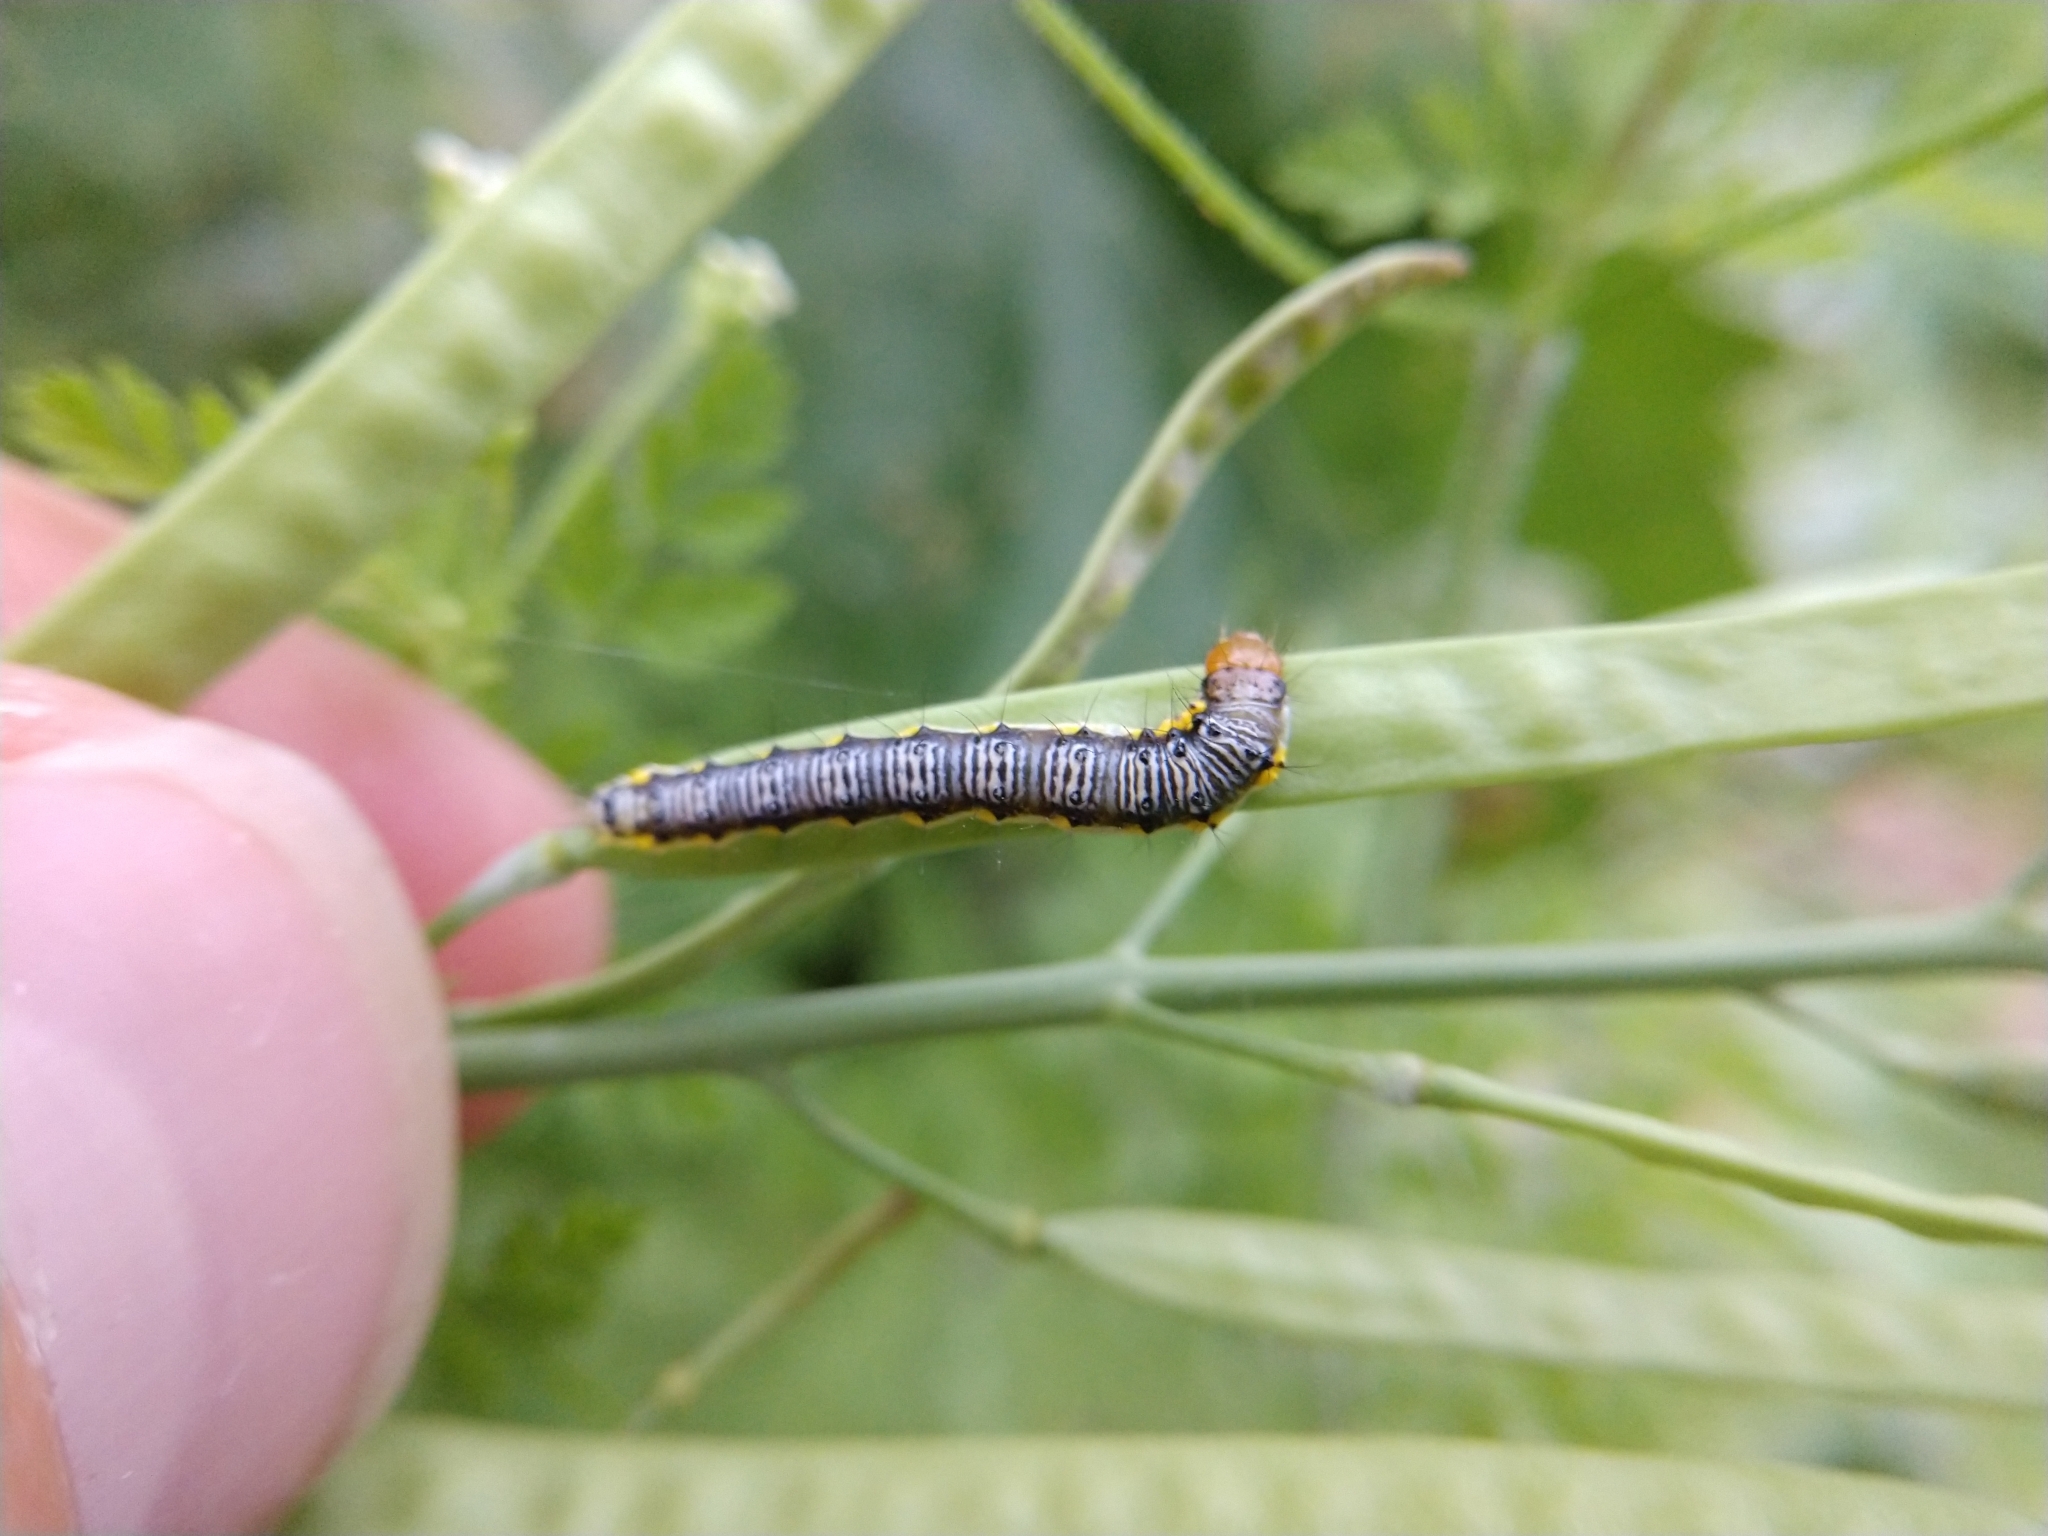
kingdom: Animalia
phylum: Arthropoda
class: Insecta
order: Lepidoptera
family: Crambidae
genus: Evergestis
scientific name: Evergestis rimosalis
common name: Cross-striped cabbageworm moth
